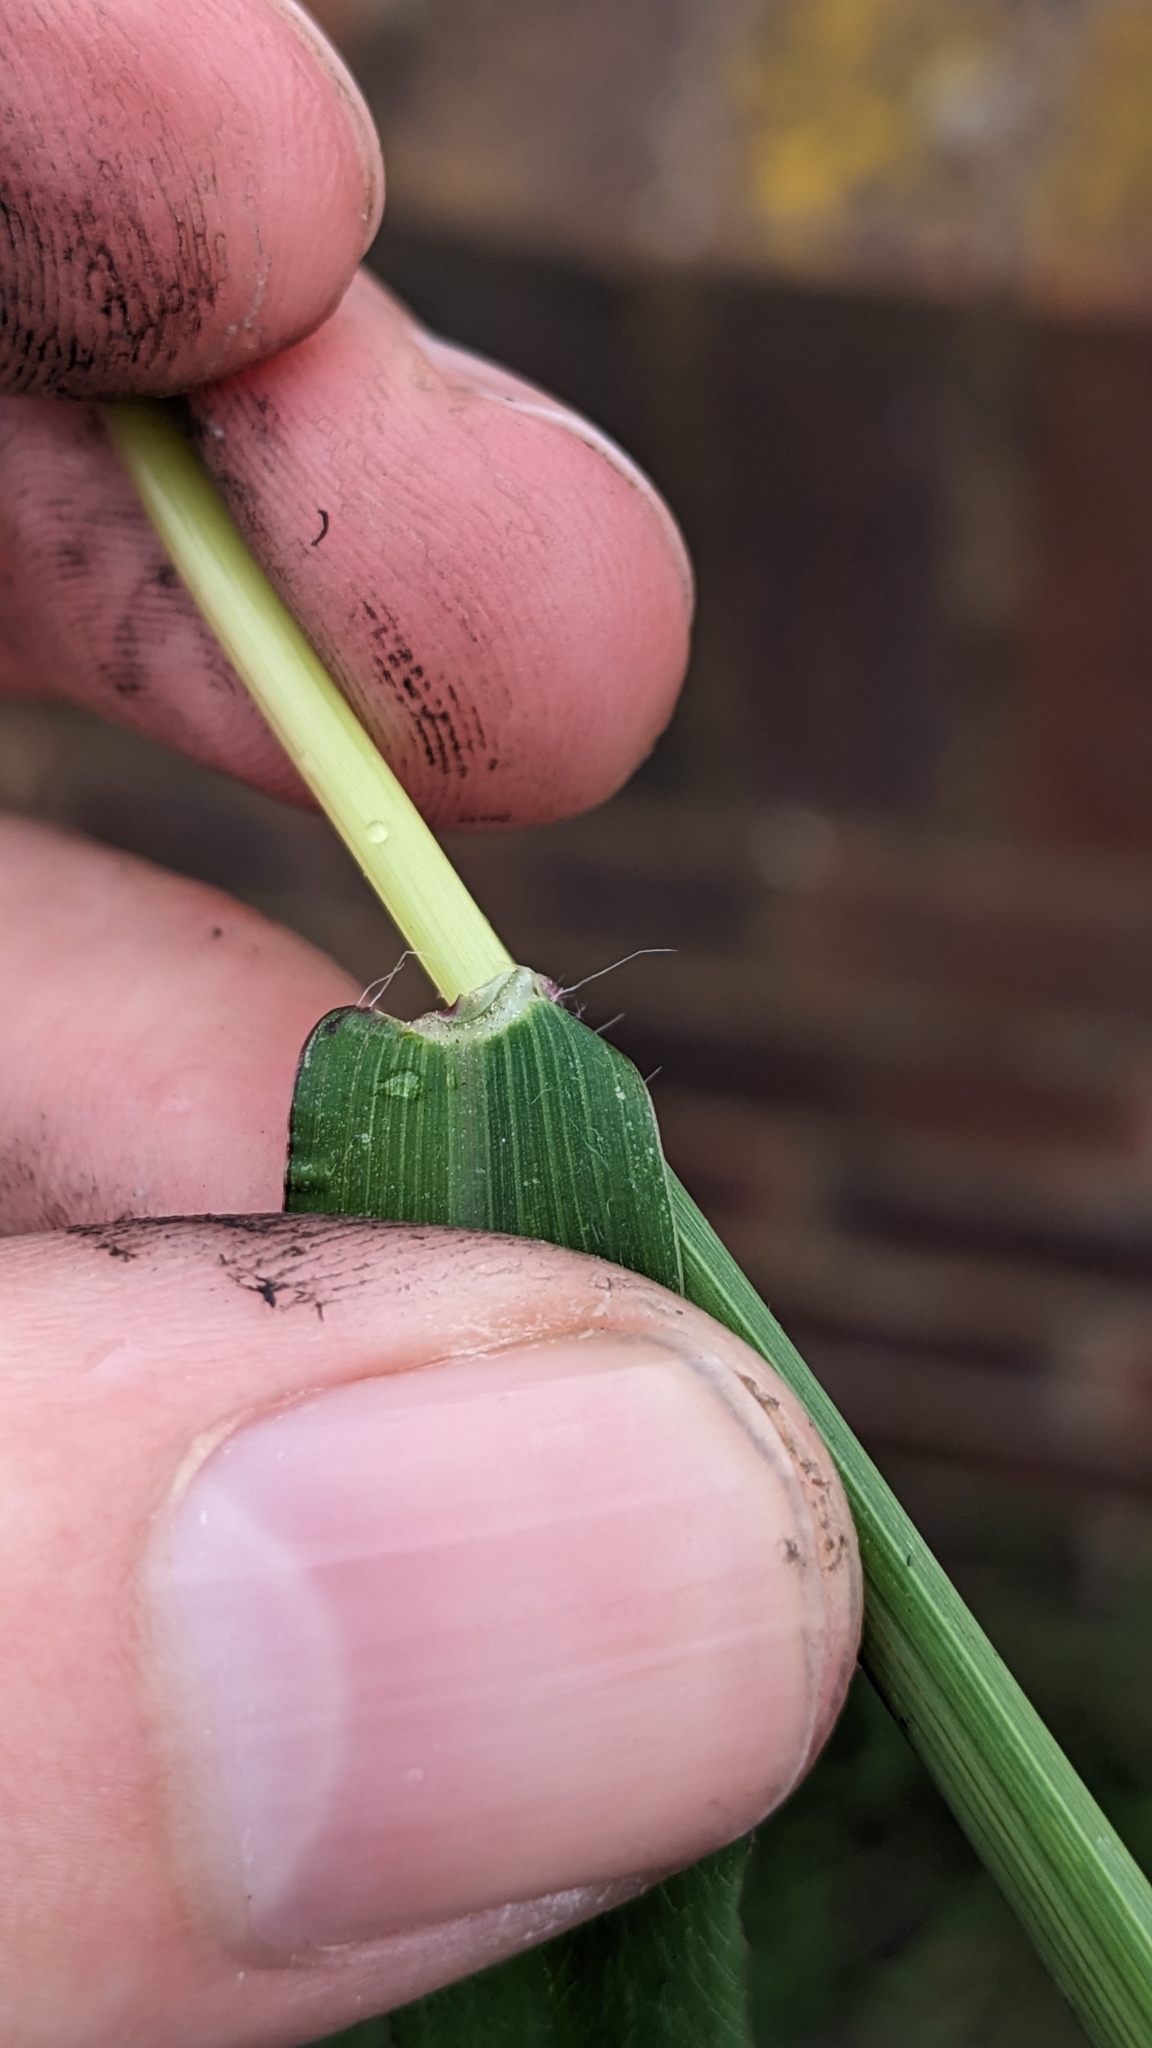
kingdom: Plantae
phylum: Tracheophyta
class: Liliopsida
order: Poales
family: Poaceae
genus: Digitaria
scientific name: Digitaria sanguinalis
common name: Hairy crabgrass
